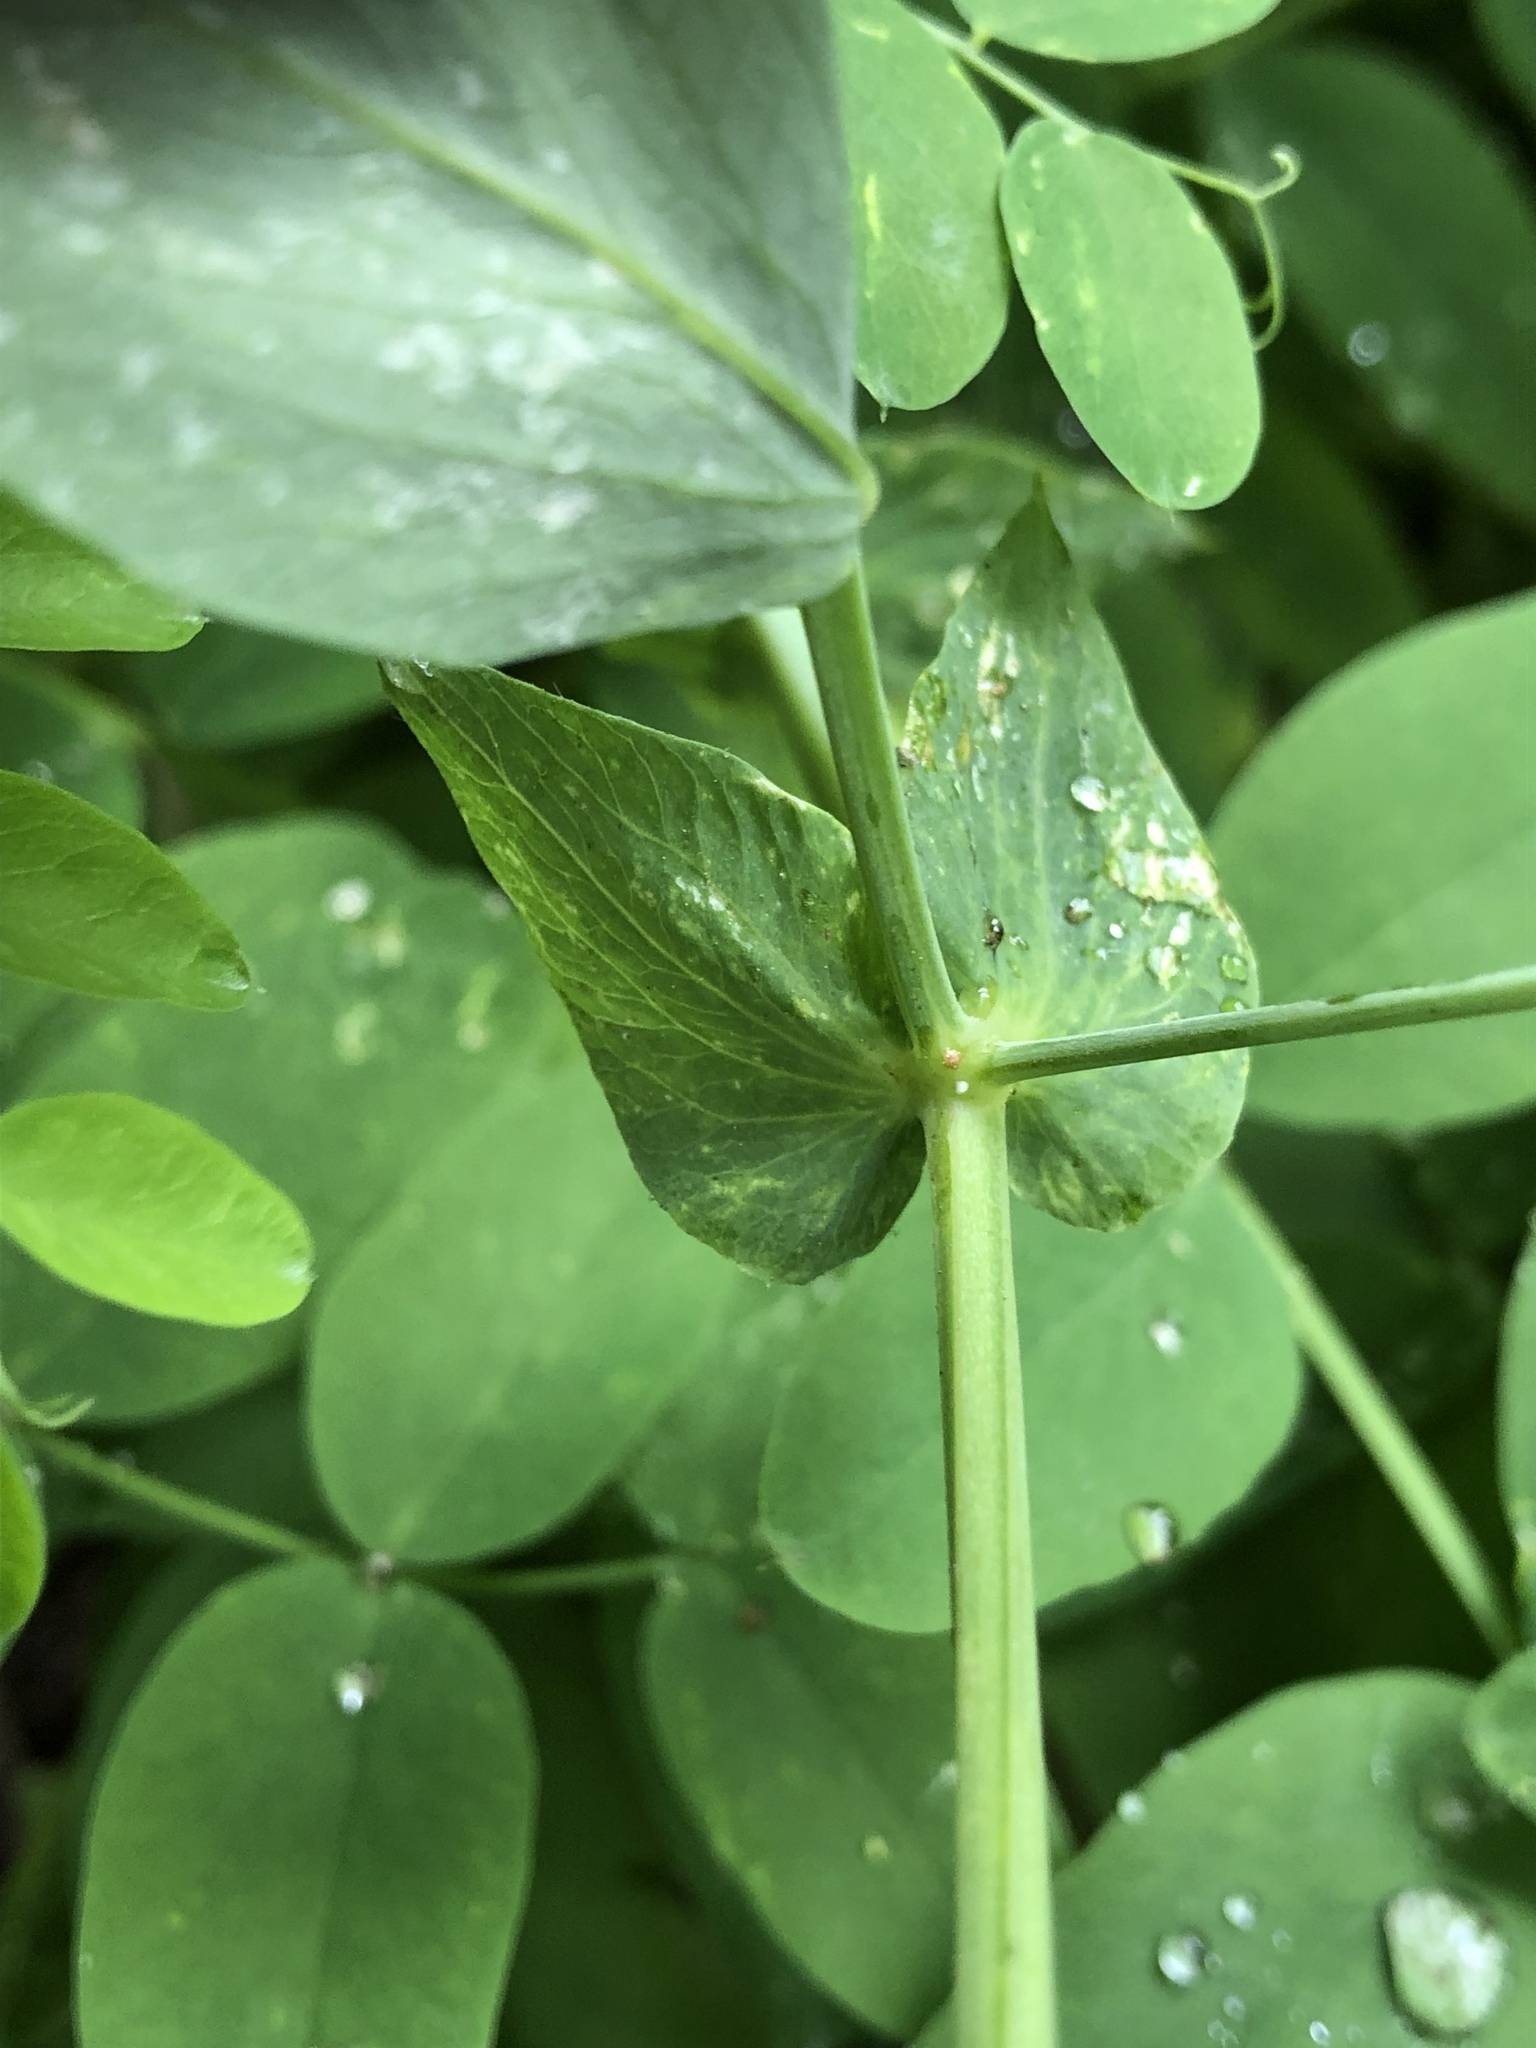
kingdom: Plantae
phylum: Tracheophyta
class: Magnoliopsida
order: Fabales
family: Fabaceae
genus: Lathyrus
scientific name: Lathyrus polyphyllus
